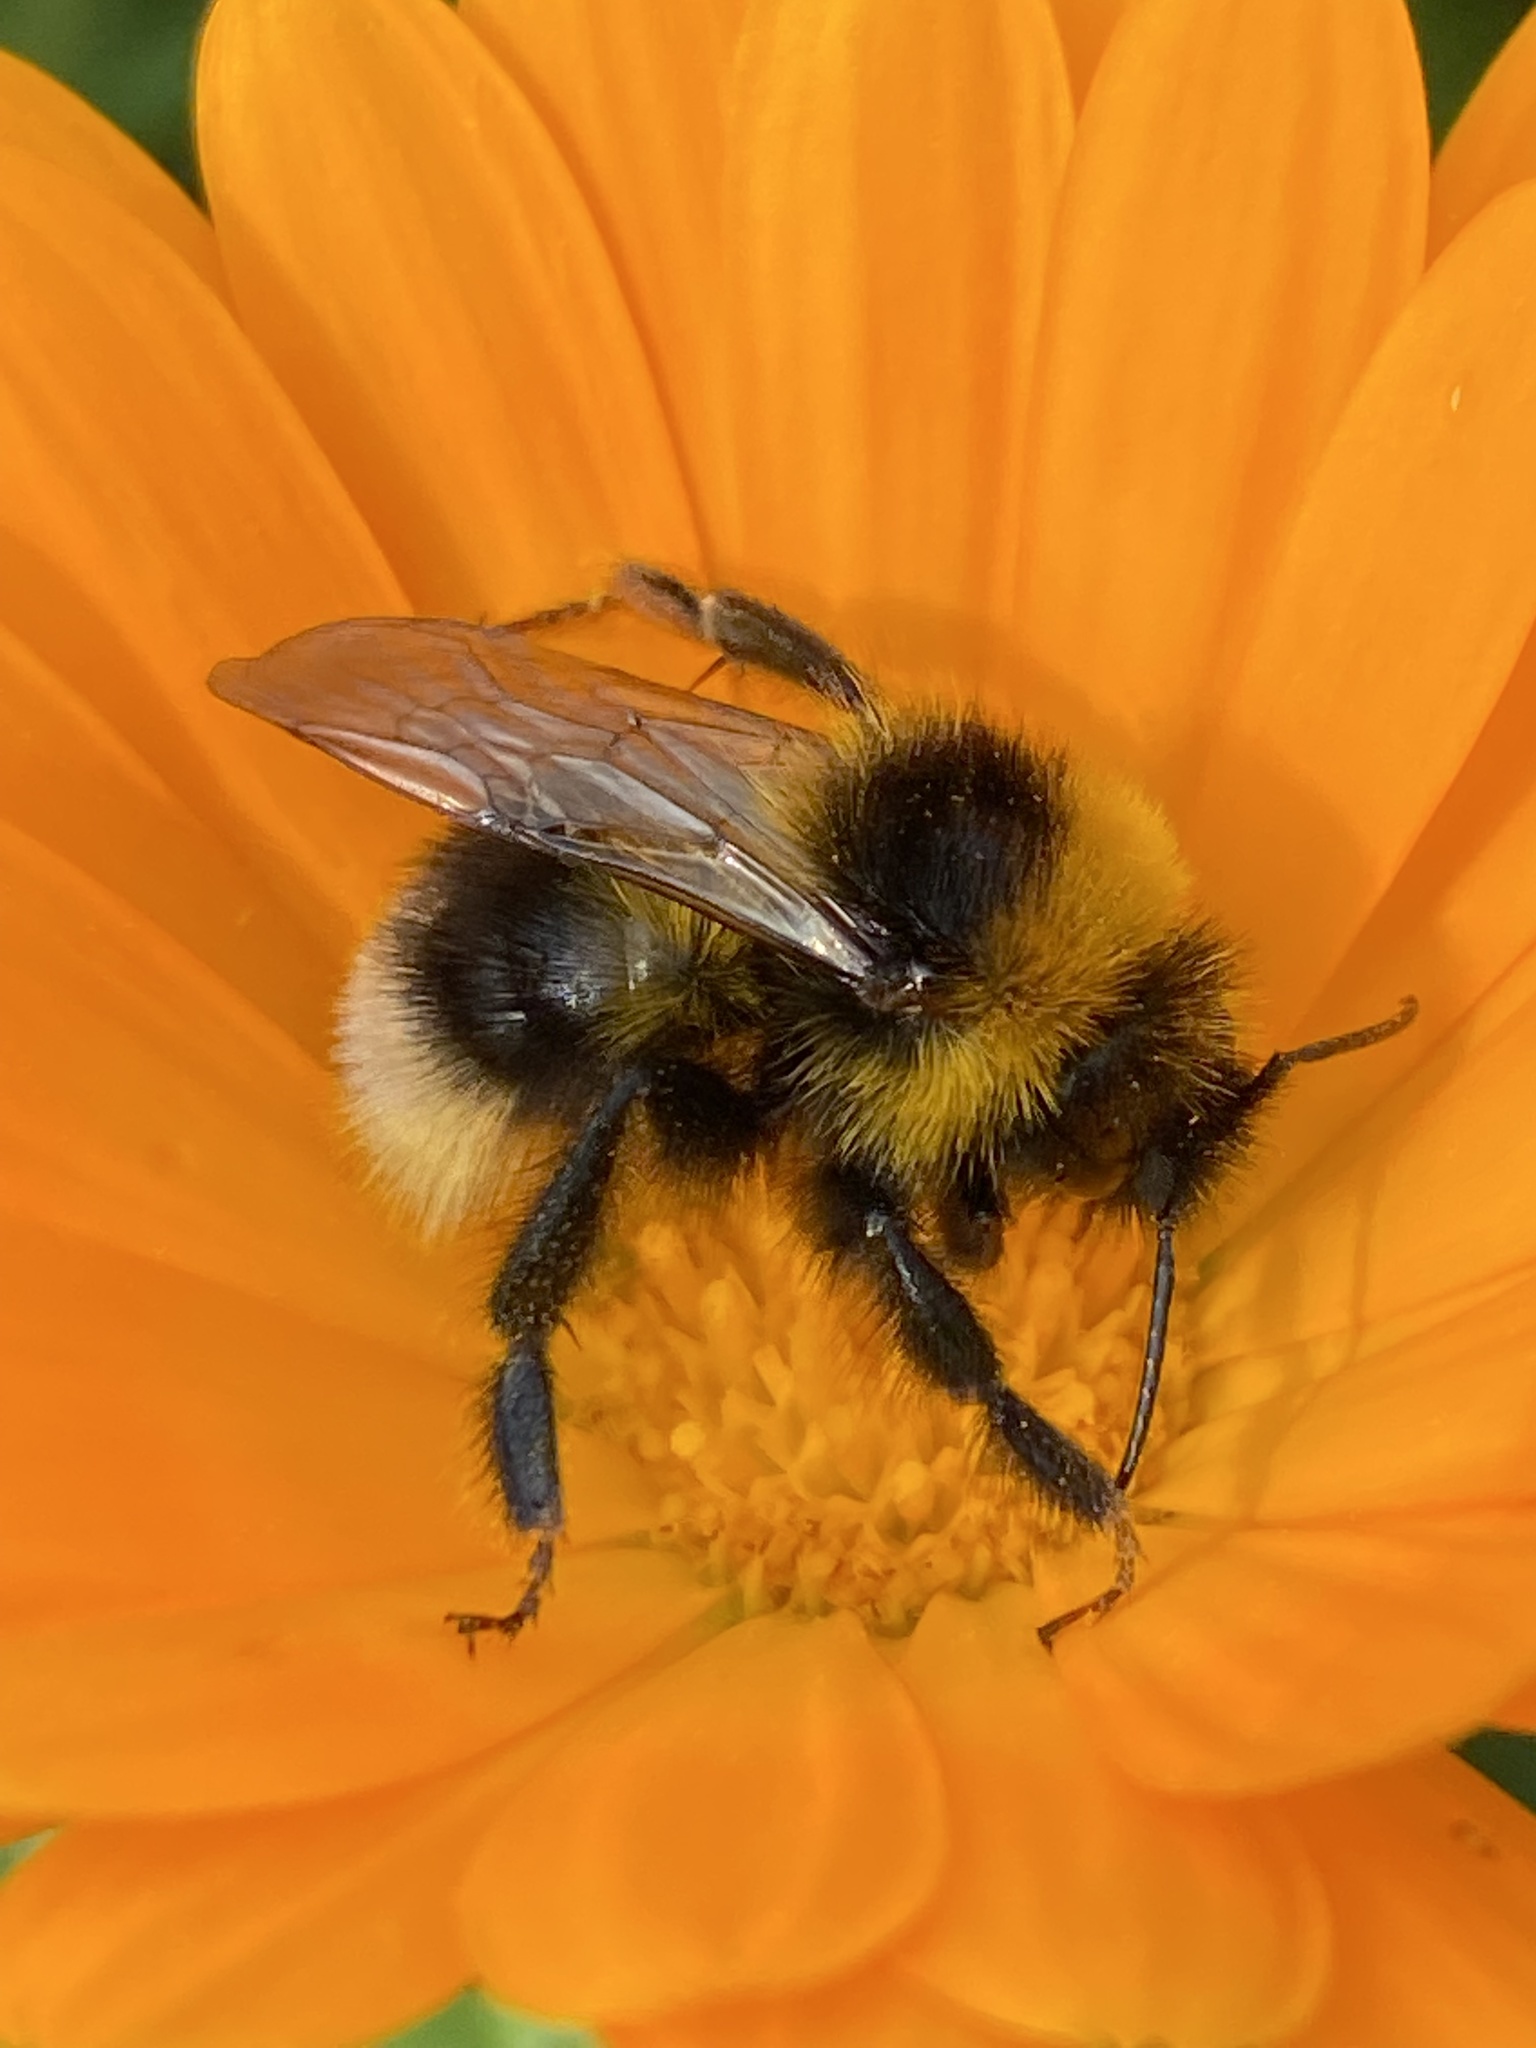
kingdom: Animalia
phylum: Arthropoda
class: Insecta
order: Hymenoptera
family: Apidae
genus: Bombus
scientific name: Bombus bohemicus
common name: Gypsy cuckoo bee
